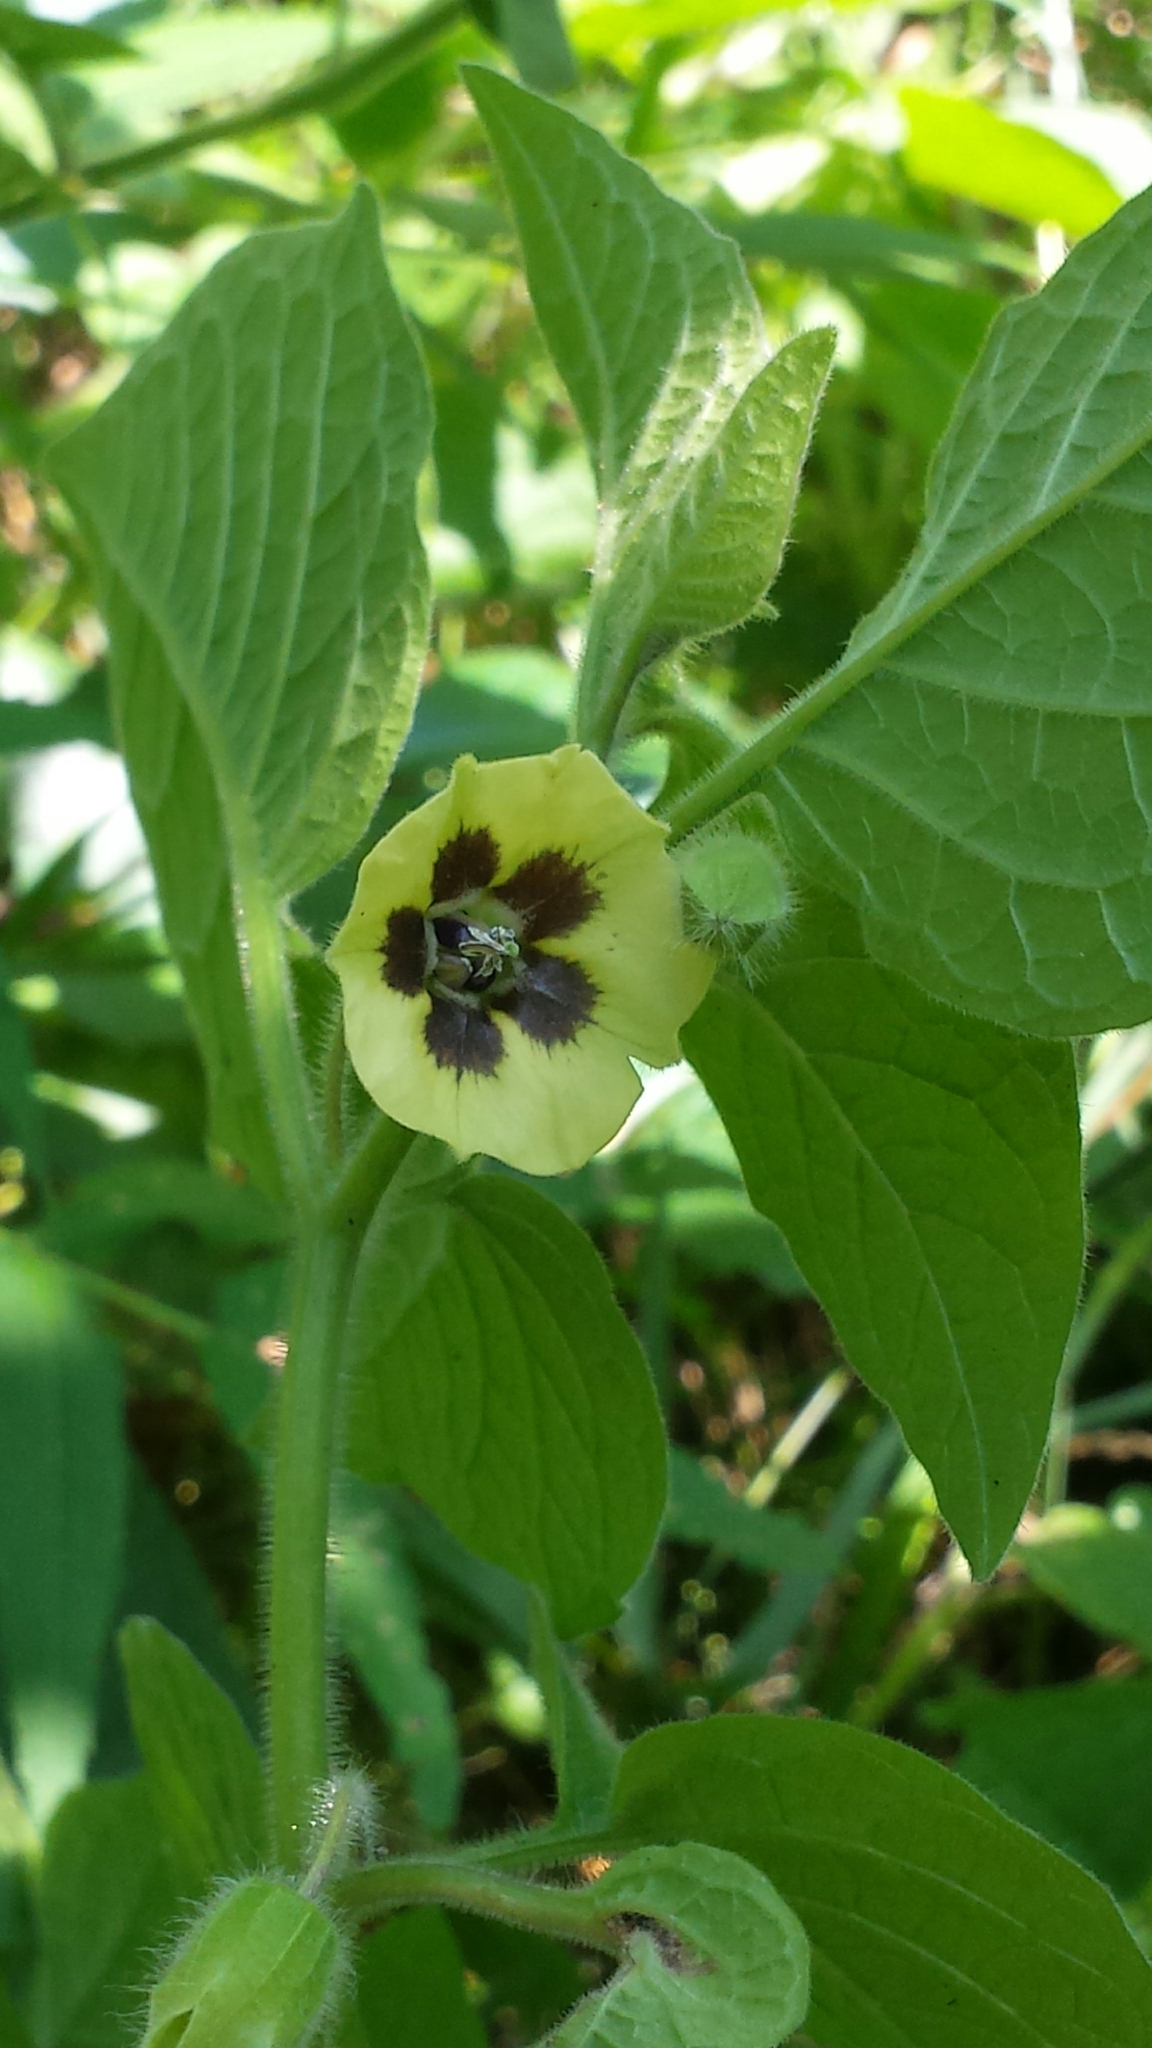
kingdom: Plantae
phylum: Tracheophyta
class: Magnoliopsida
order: Solanales
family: Solanaceae
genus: Physalis
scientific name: Physalis heterophylla
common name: Clammy ground-cherry
